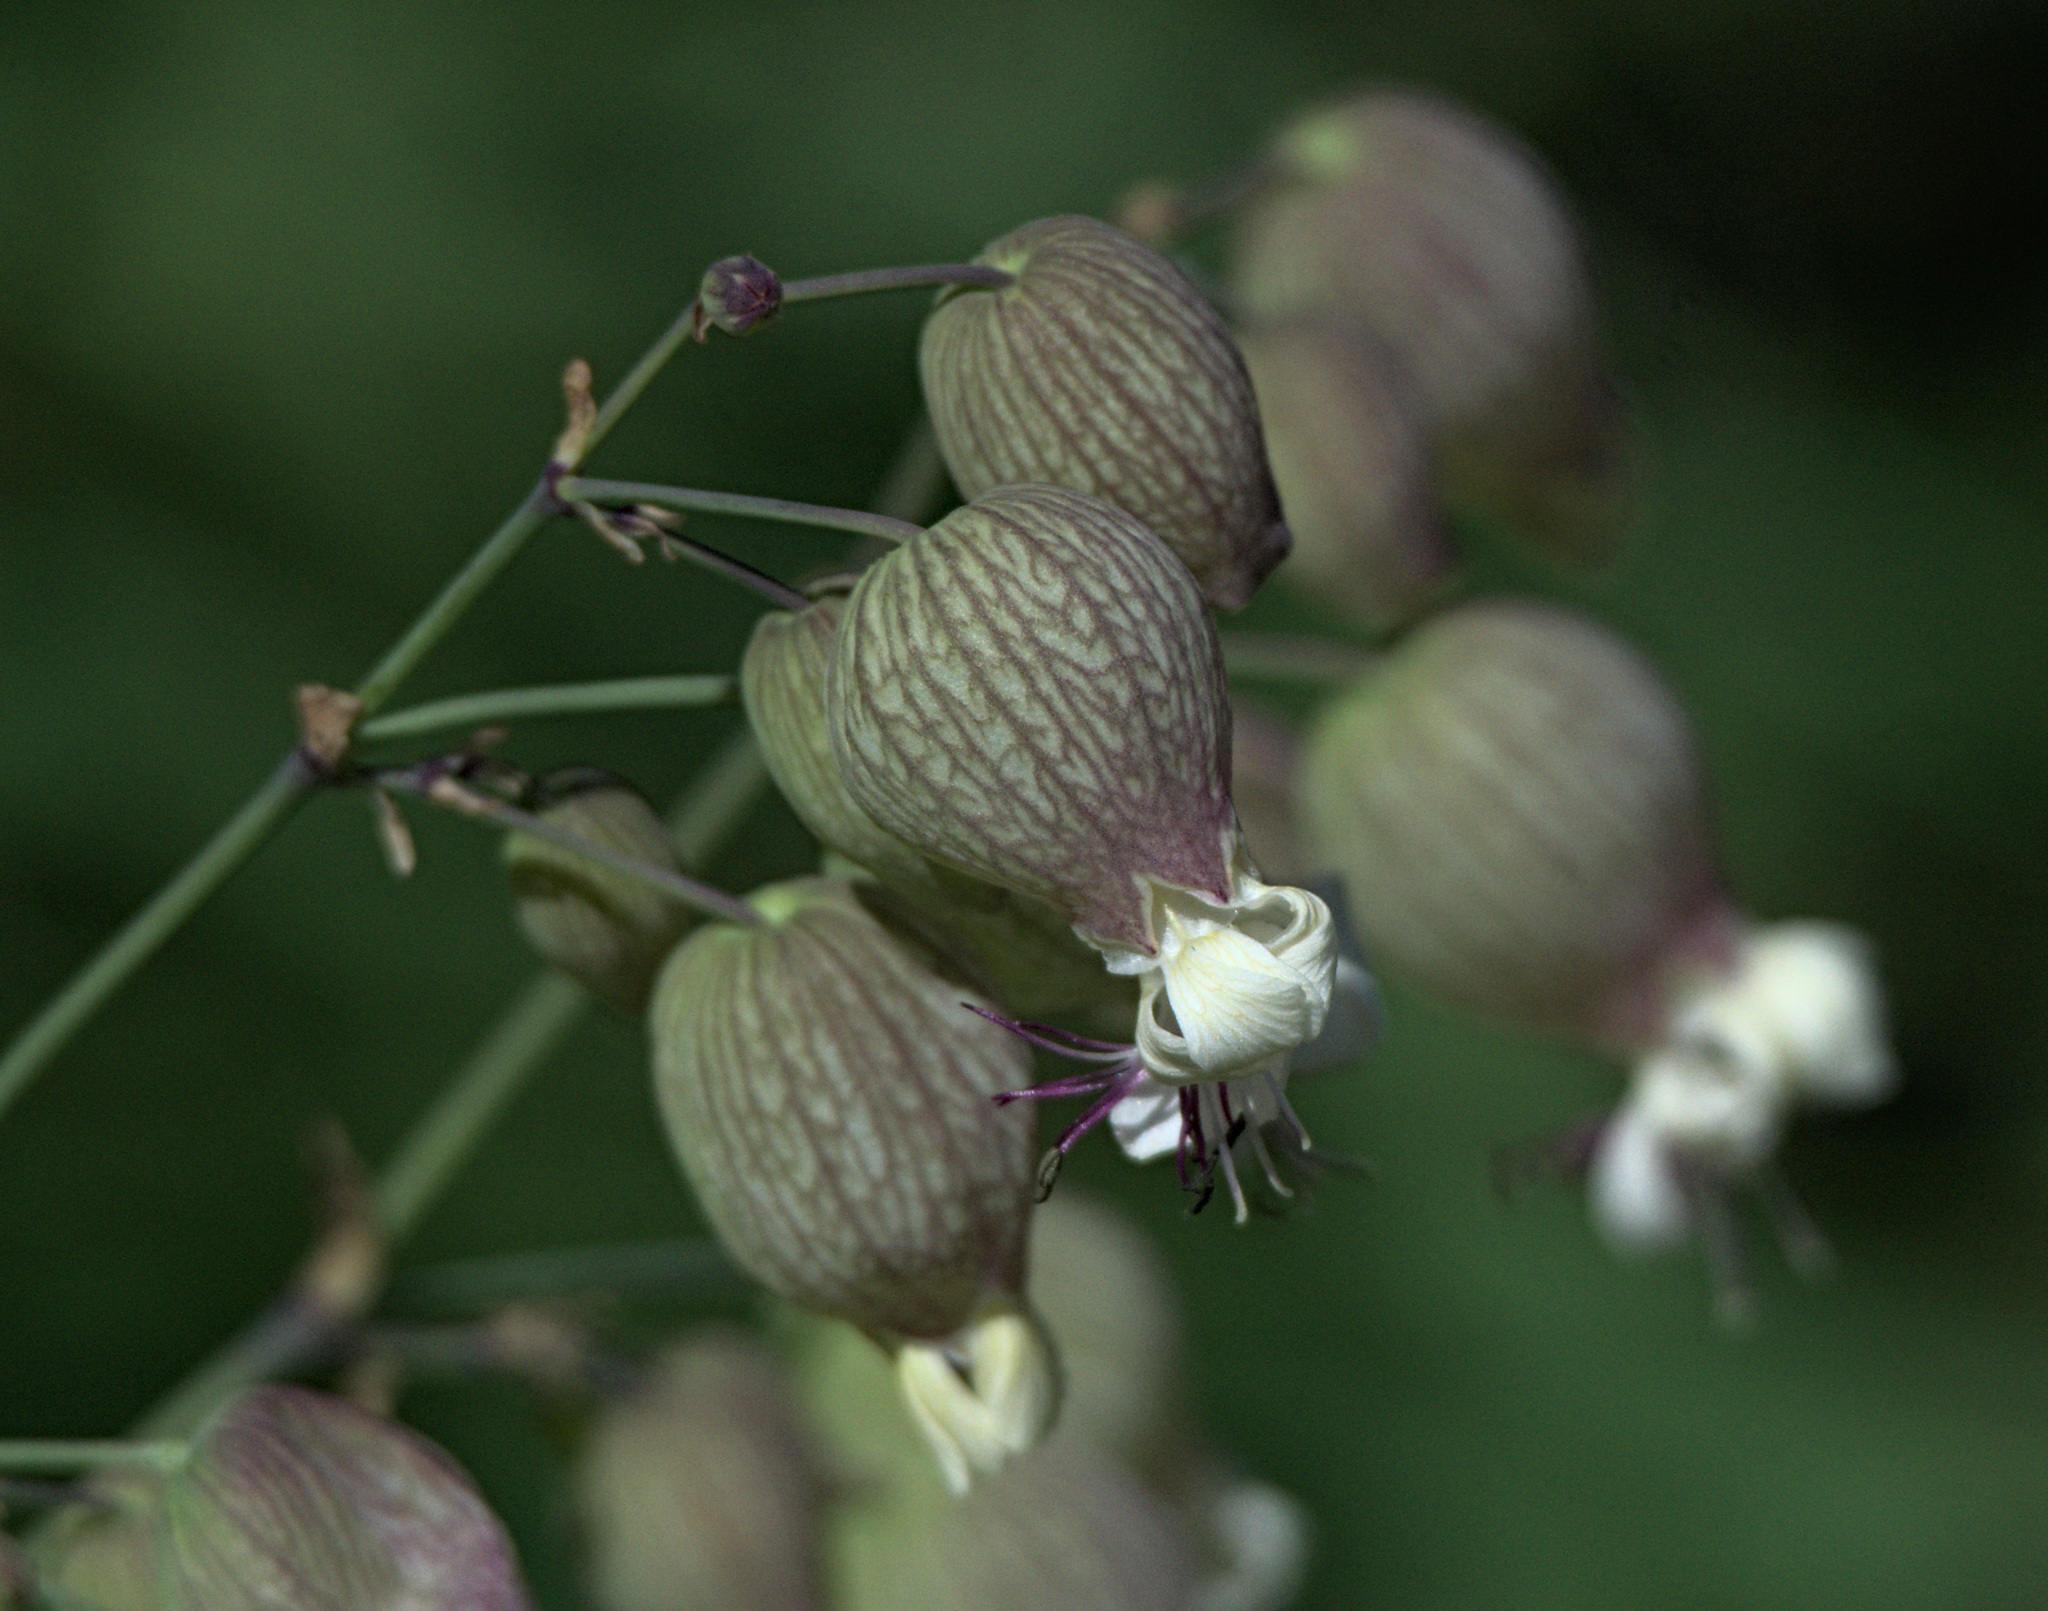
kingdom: Plantae
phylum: Tracheophyta
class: Magnoliopsida
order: Caryophyllales
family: Caryophyllaceae
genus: Silene
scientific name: Silene vulgaris
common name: Bladder campion
